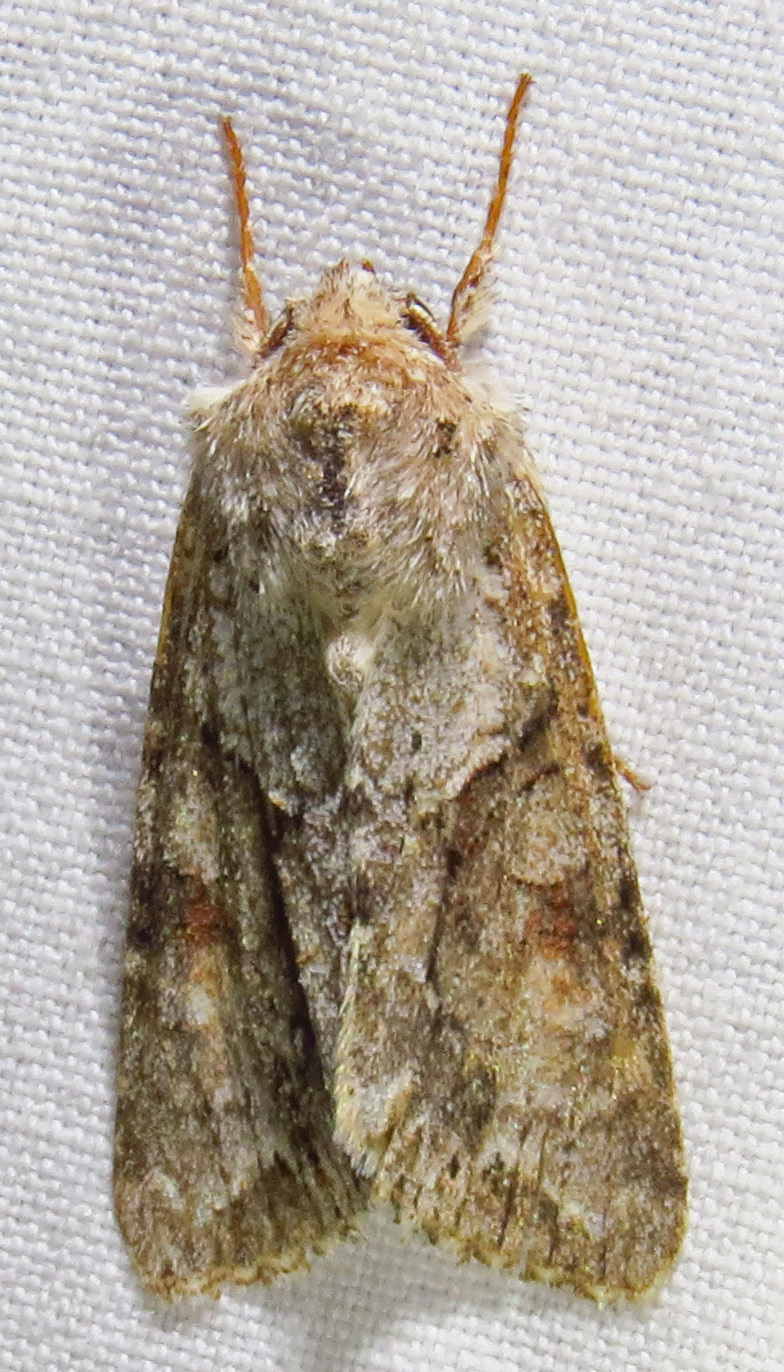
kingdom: Animalia
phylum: Arthropoda
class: Insecta
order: Lepidoptera
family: Noctuidae
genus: Achatia
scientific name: Achatia distincta
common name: Distinct quaker
